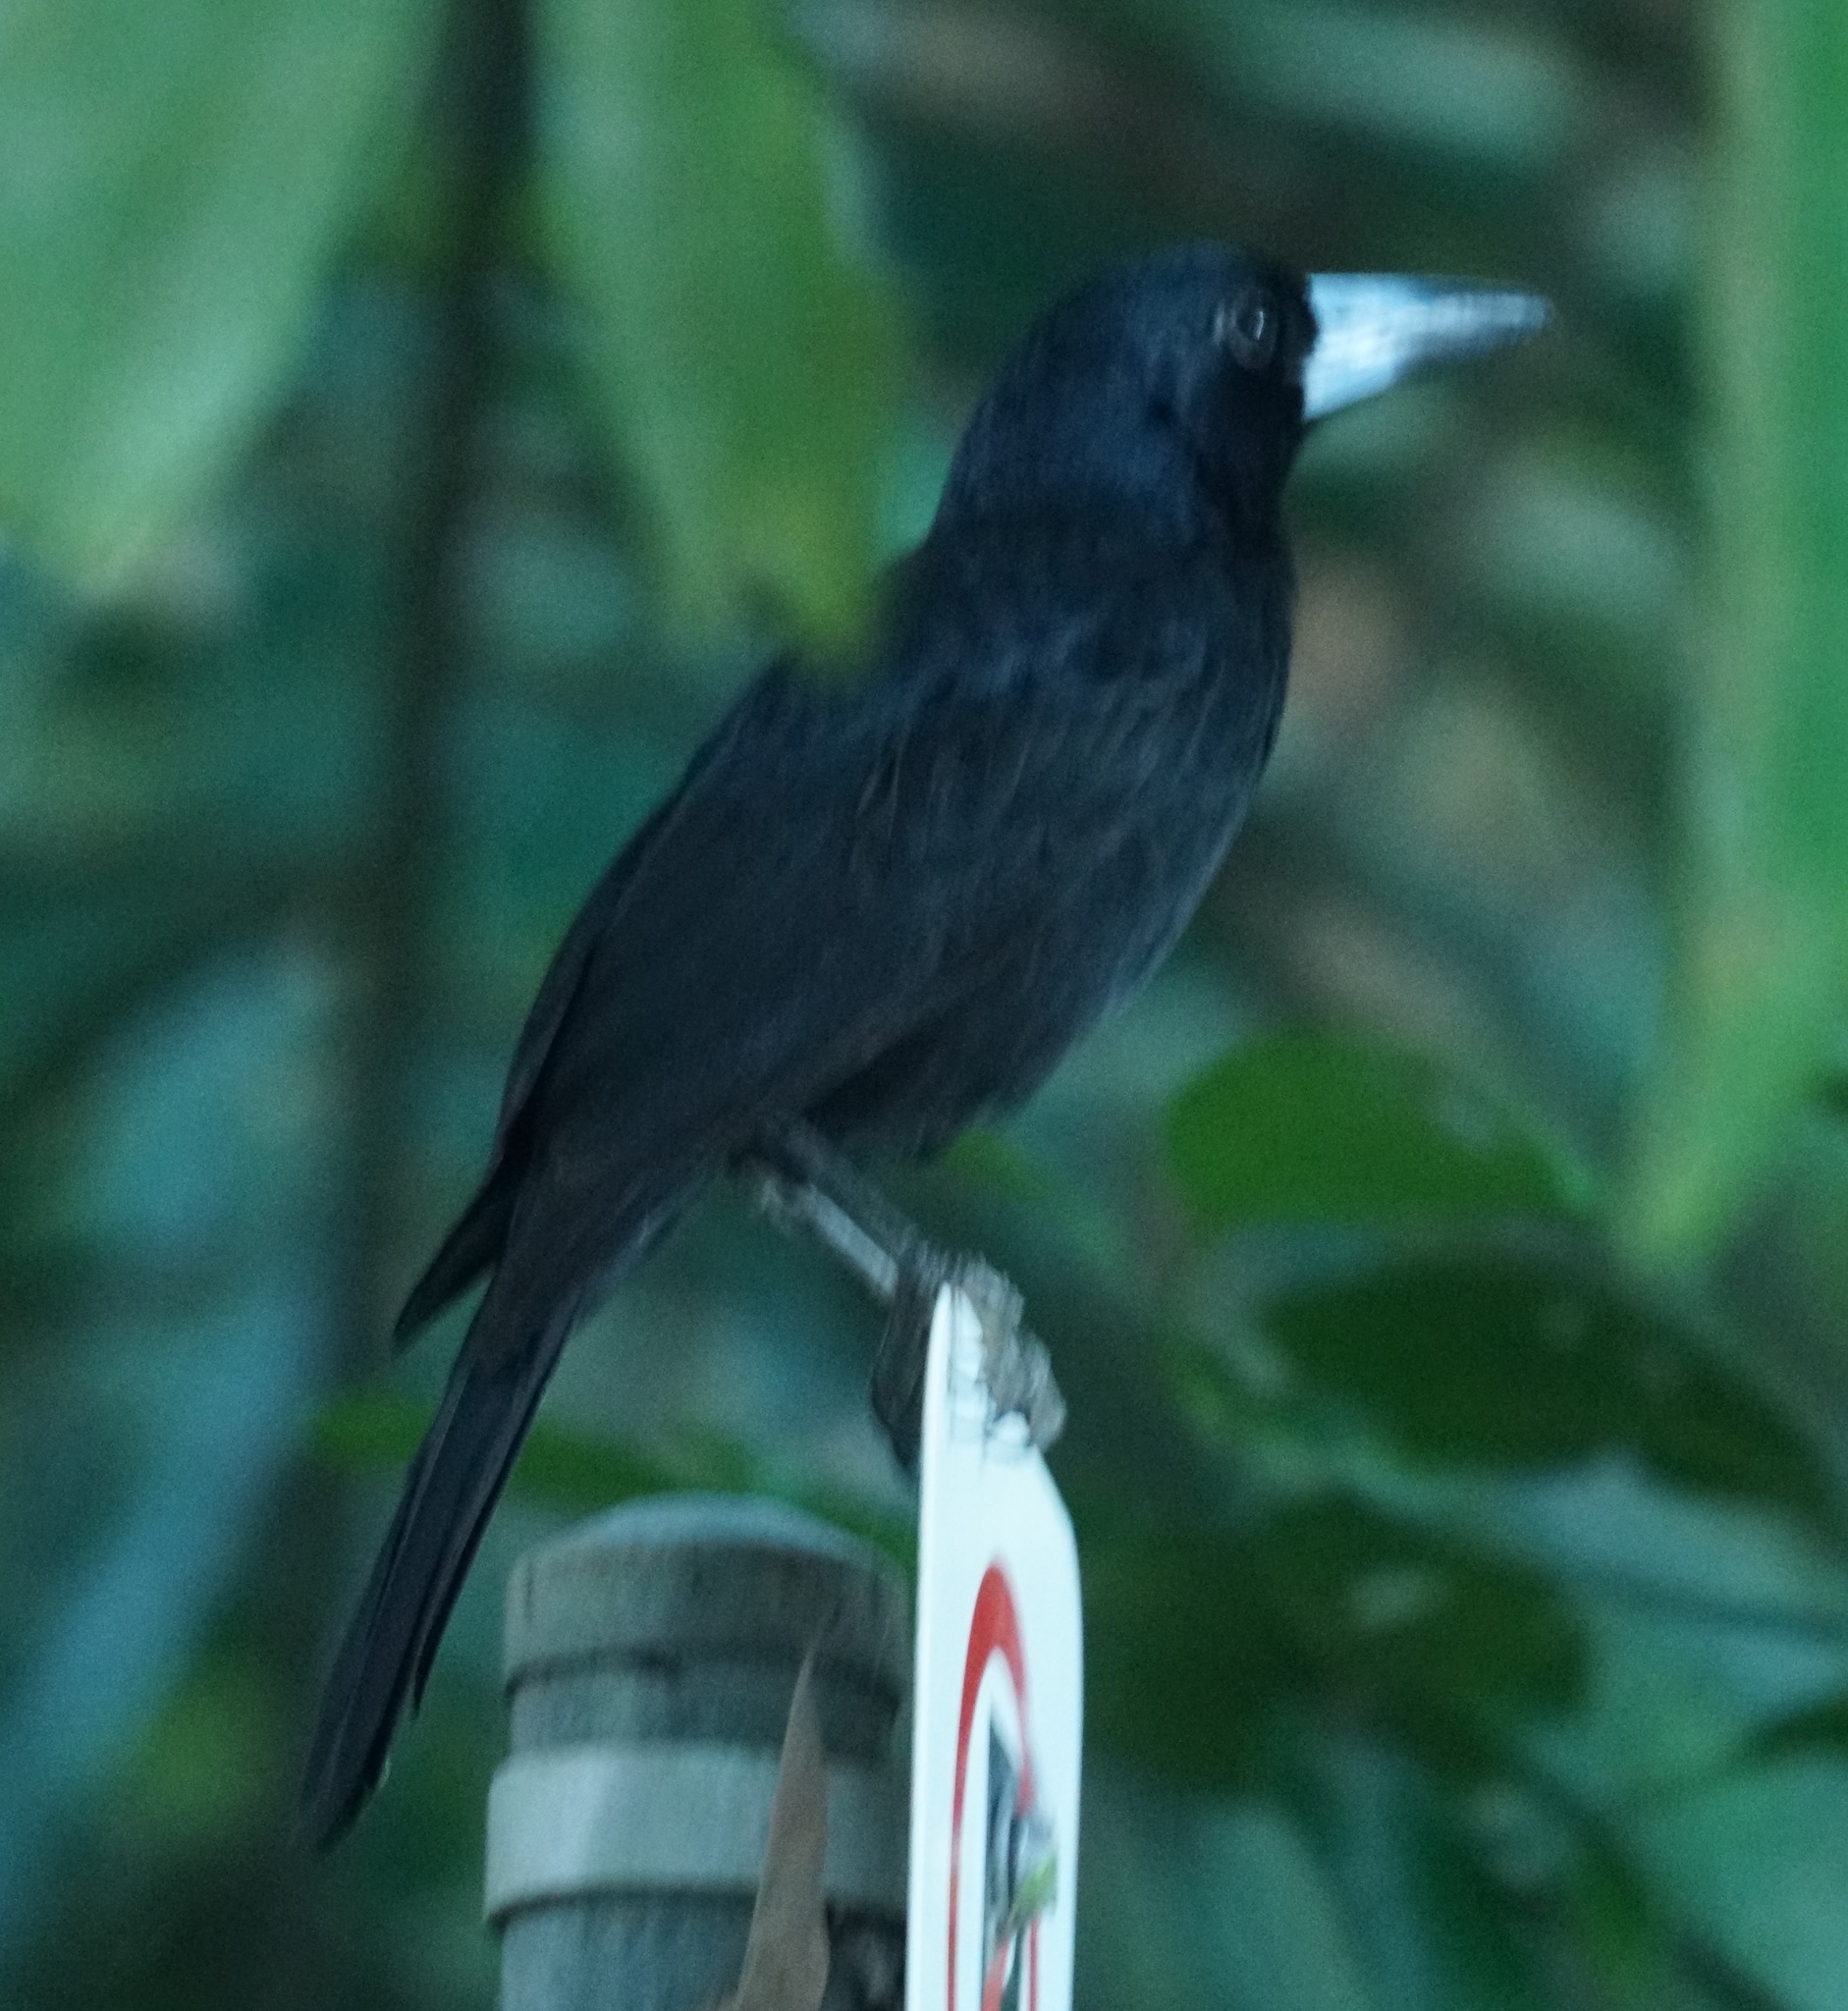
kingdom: Animalia
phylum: Chordata
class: Aves
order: Passeriformes
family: Artamidae
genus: Melloria
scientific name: Melloria quoyi
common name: Black butcherbird
